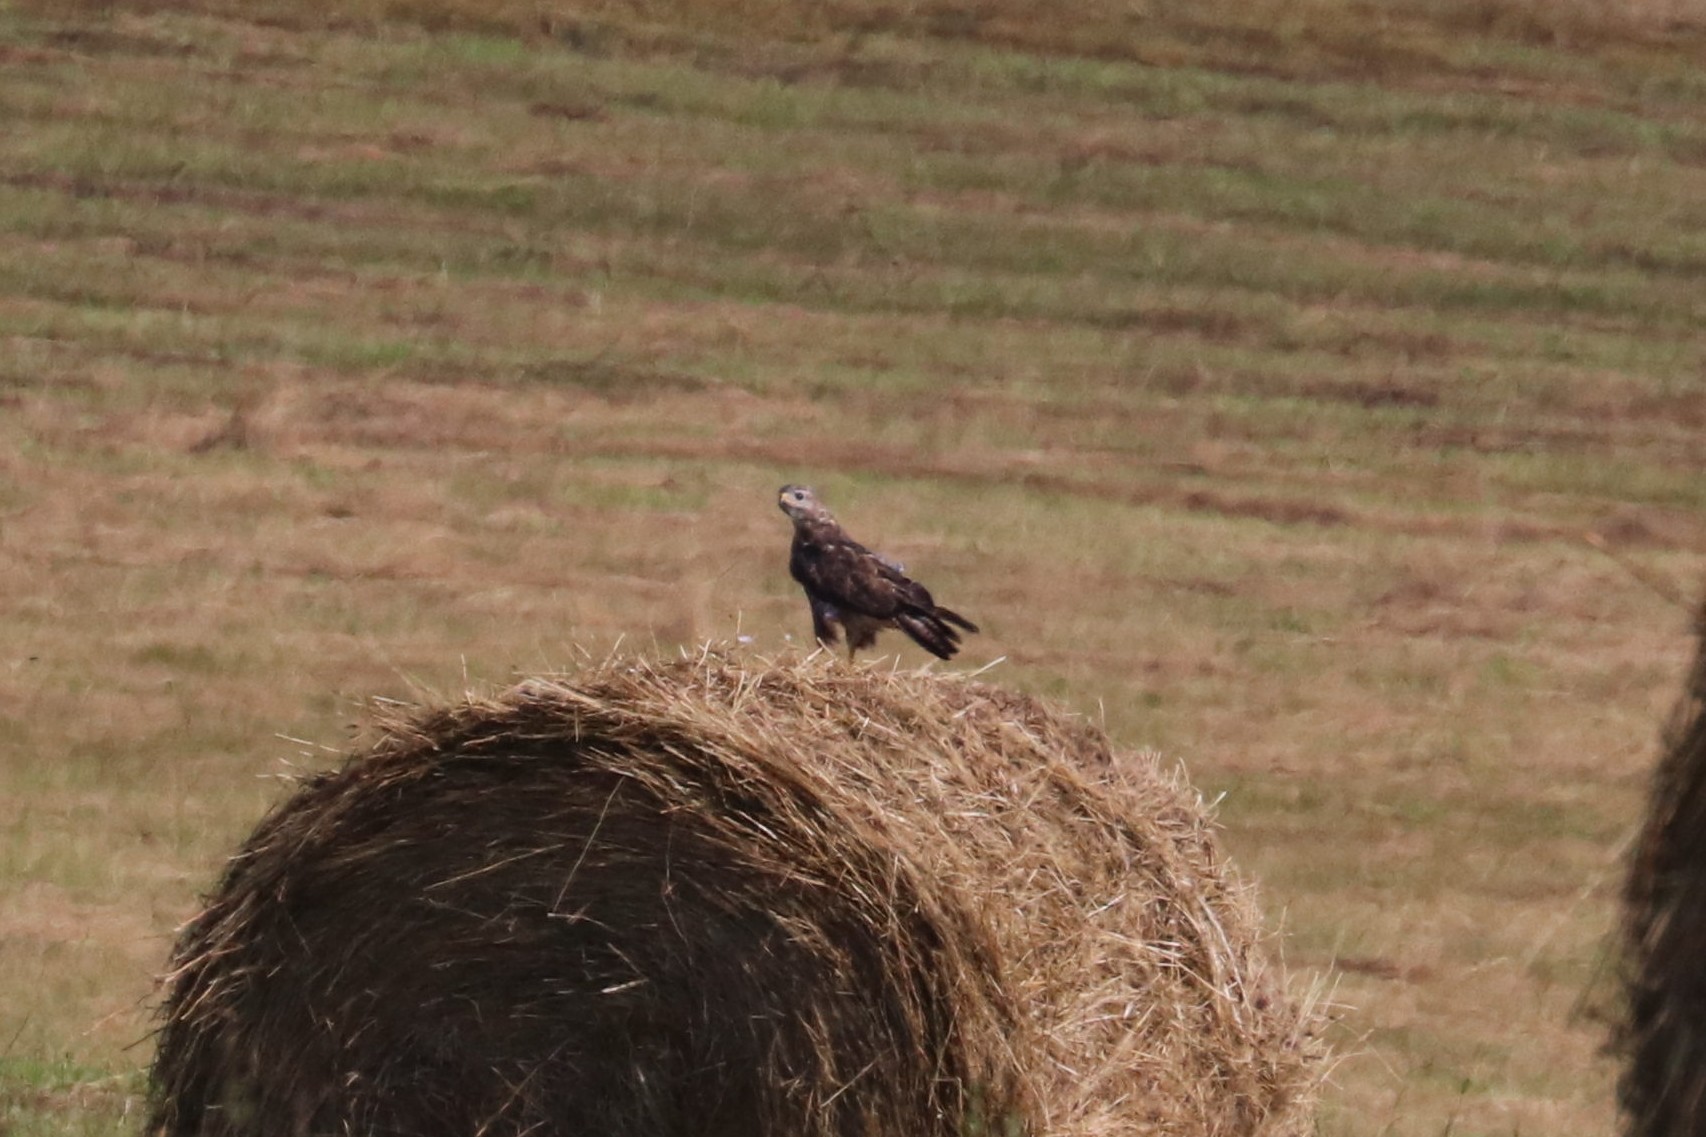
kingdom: Animalia
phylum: Chordata
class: Aves
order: Accipitriformes
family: Accipitridae
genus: Buteo
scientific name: Buteo buteo
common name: Common buzzard
